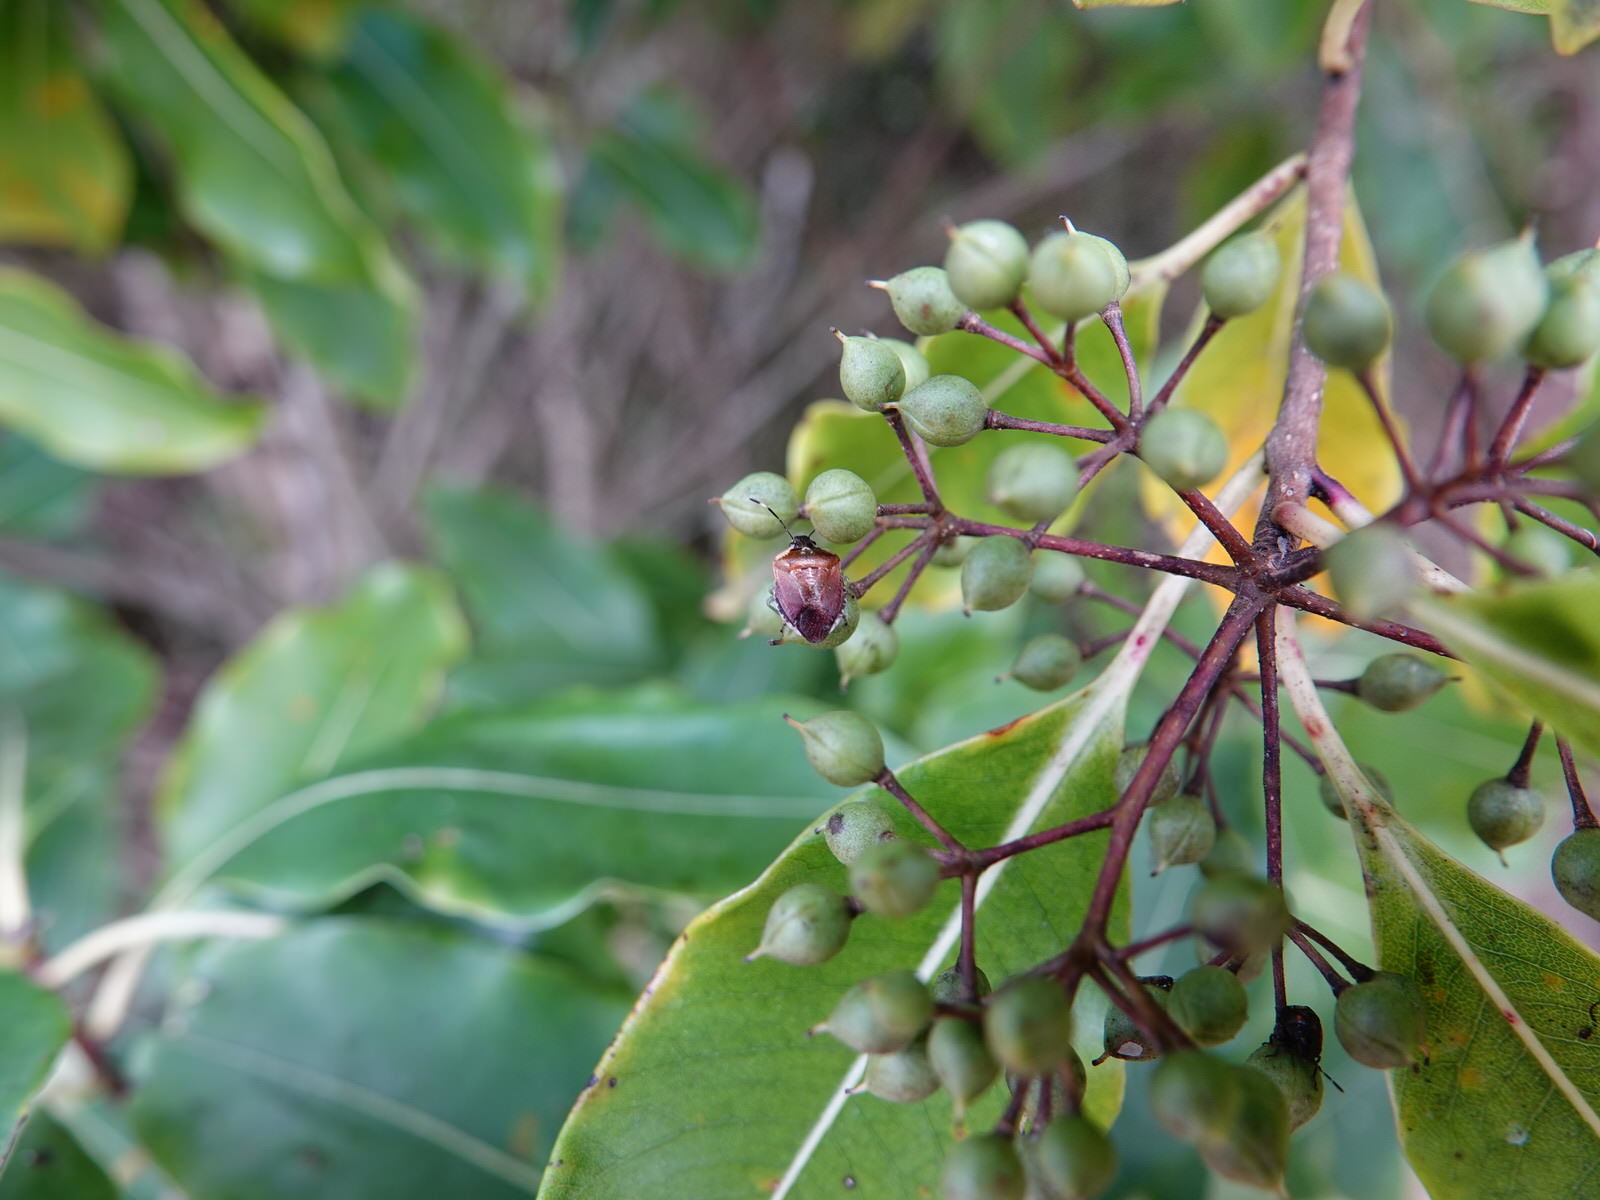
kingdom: Animalia
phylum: Arthropoda
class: Insecta
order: Hemiptera
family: Pentatomidae
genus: Monteithiella
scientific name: Monteithiella
